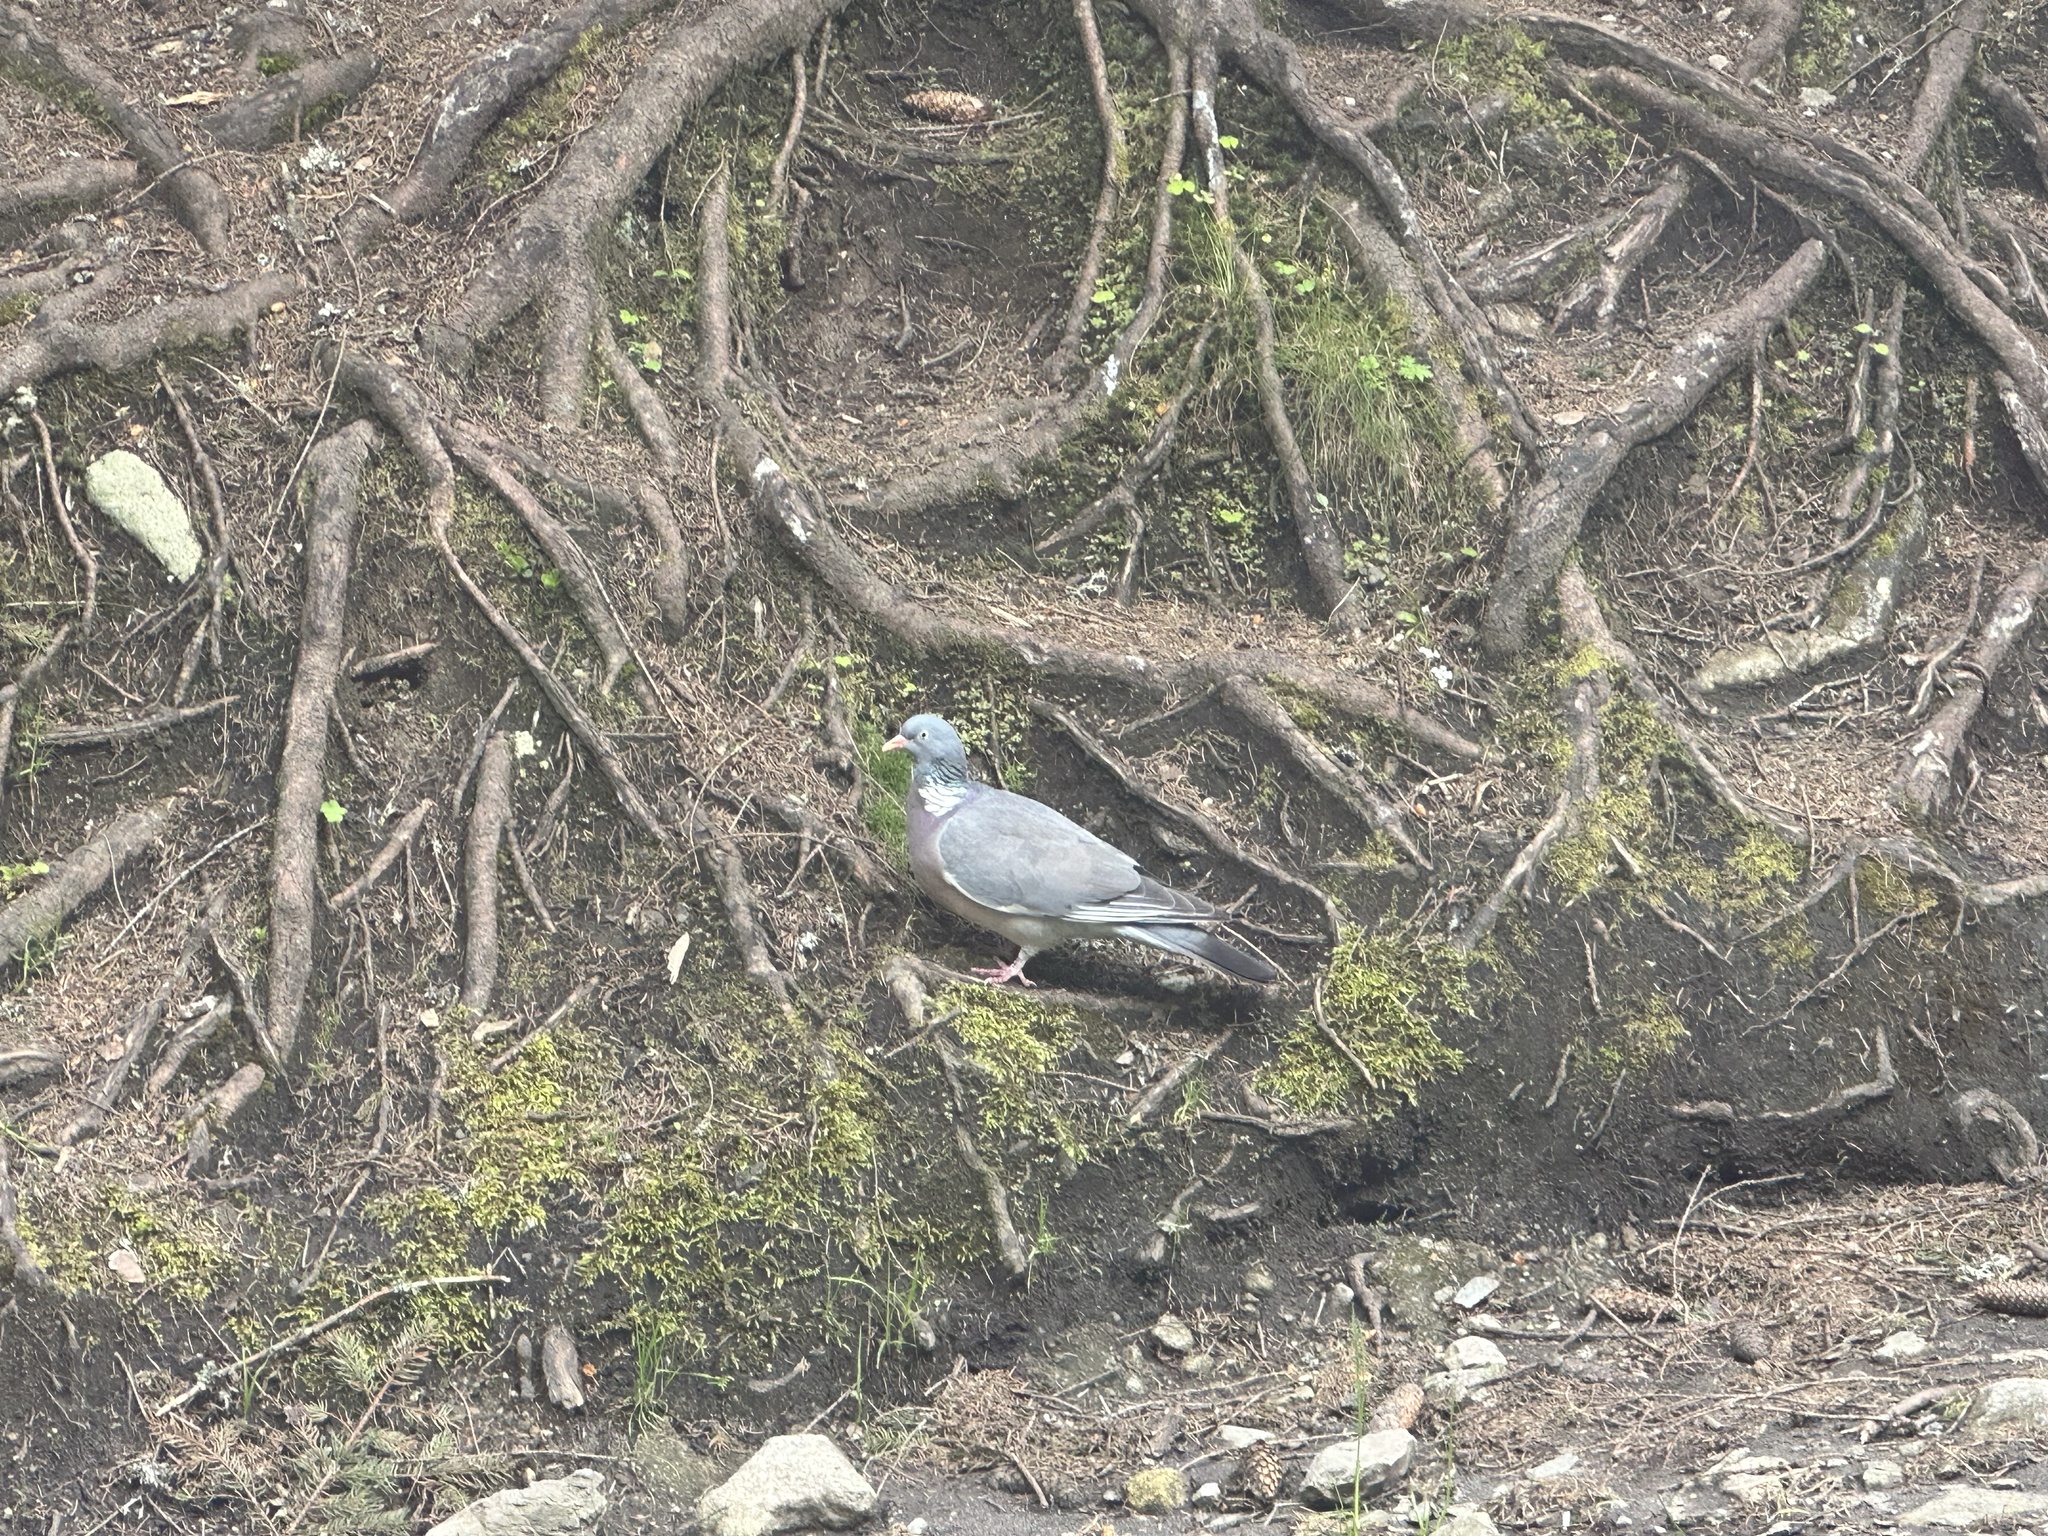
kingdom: Animalia
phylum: Chordata
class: Aves
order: Columbiformes
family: Columbidae
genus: Columba
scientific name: Columba palumbus
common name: Common wood pigeon
